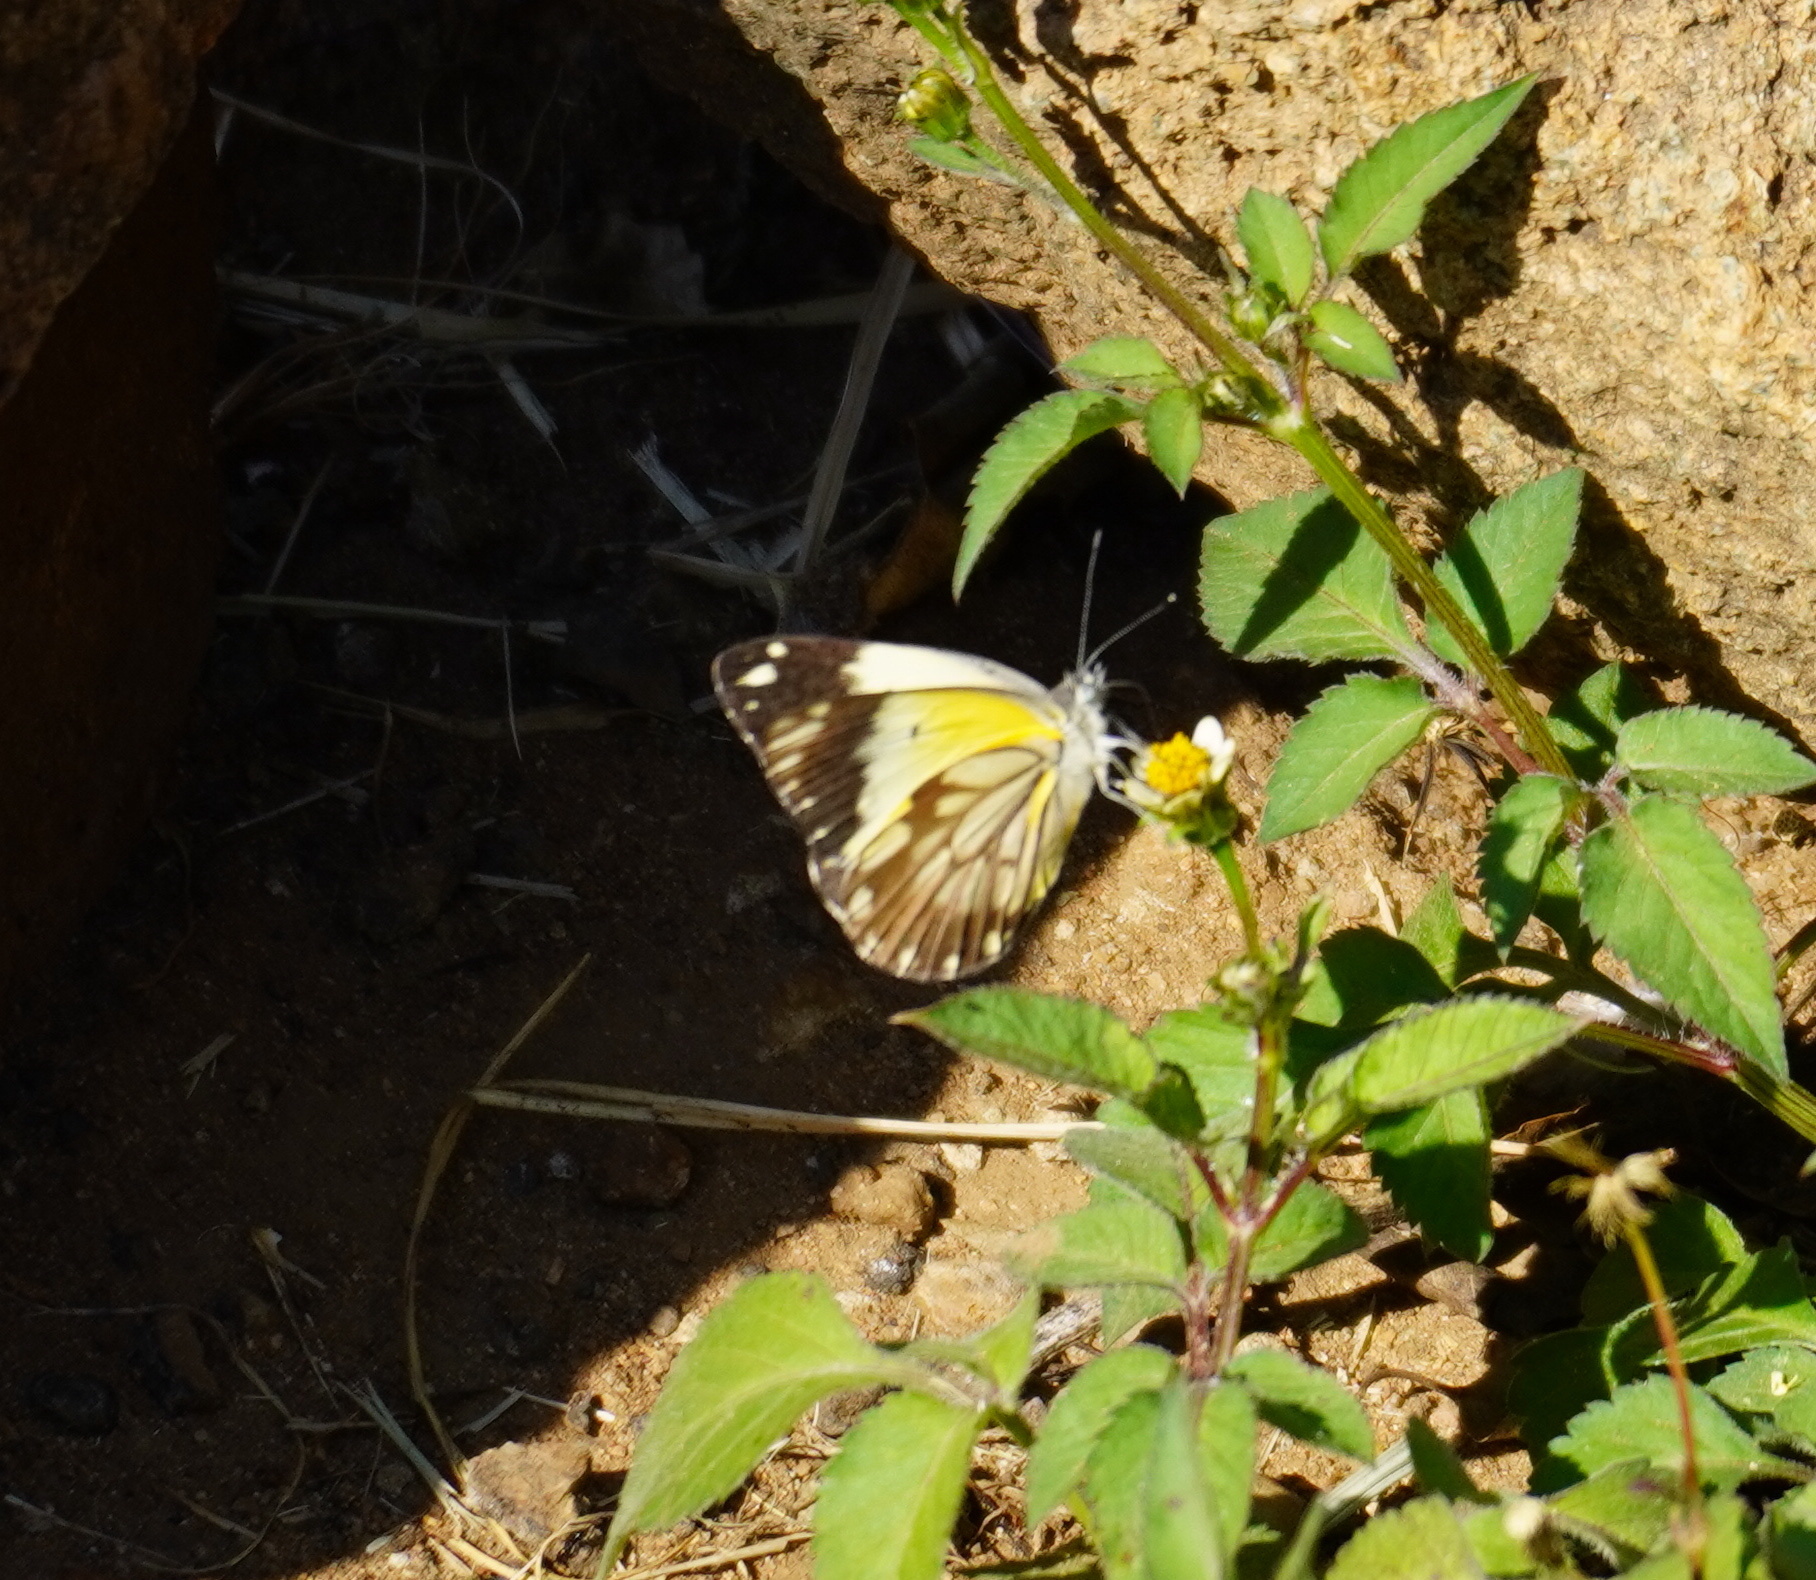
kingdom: Animalia
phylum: Arthropoda
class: Insecta
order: Lepidoptera
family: Pieridae
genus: Belenois
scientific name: Belenois creona
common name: African caper white
